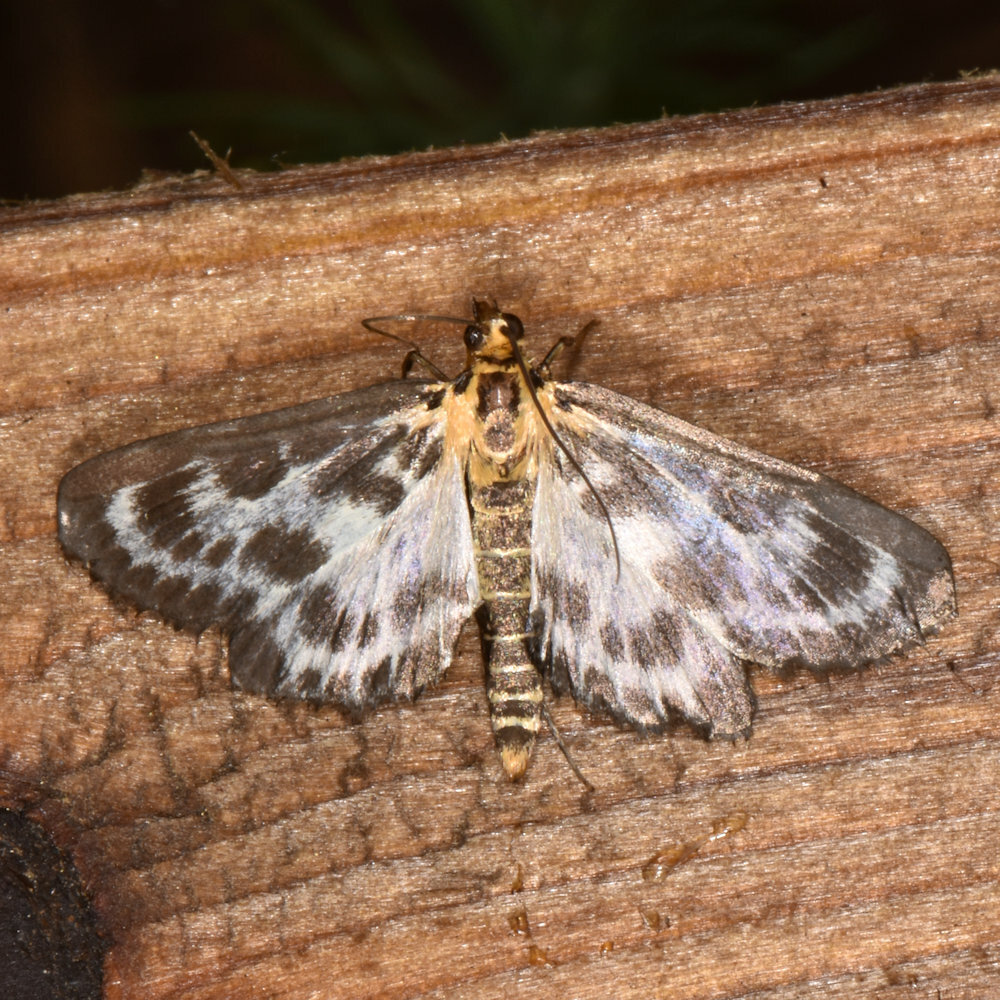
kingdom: Animalia
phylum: Arthropoda
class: Insecta
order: Lepidoptera
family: Crambidae
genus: Anania
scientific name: Anania hortulata
